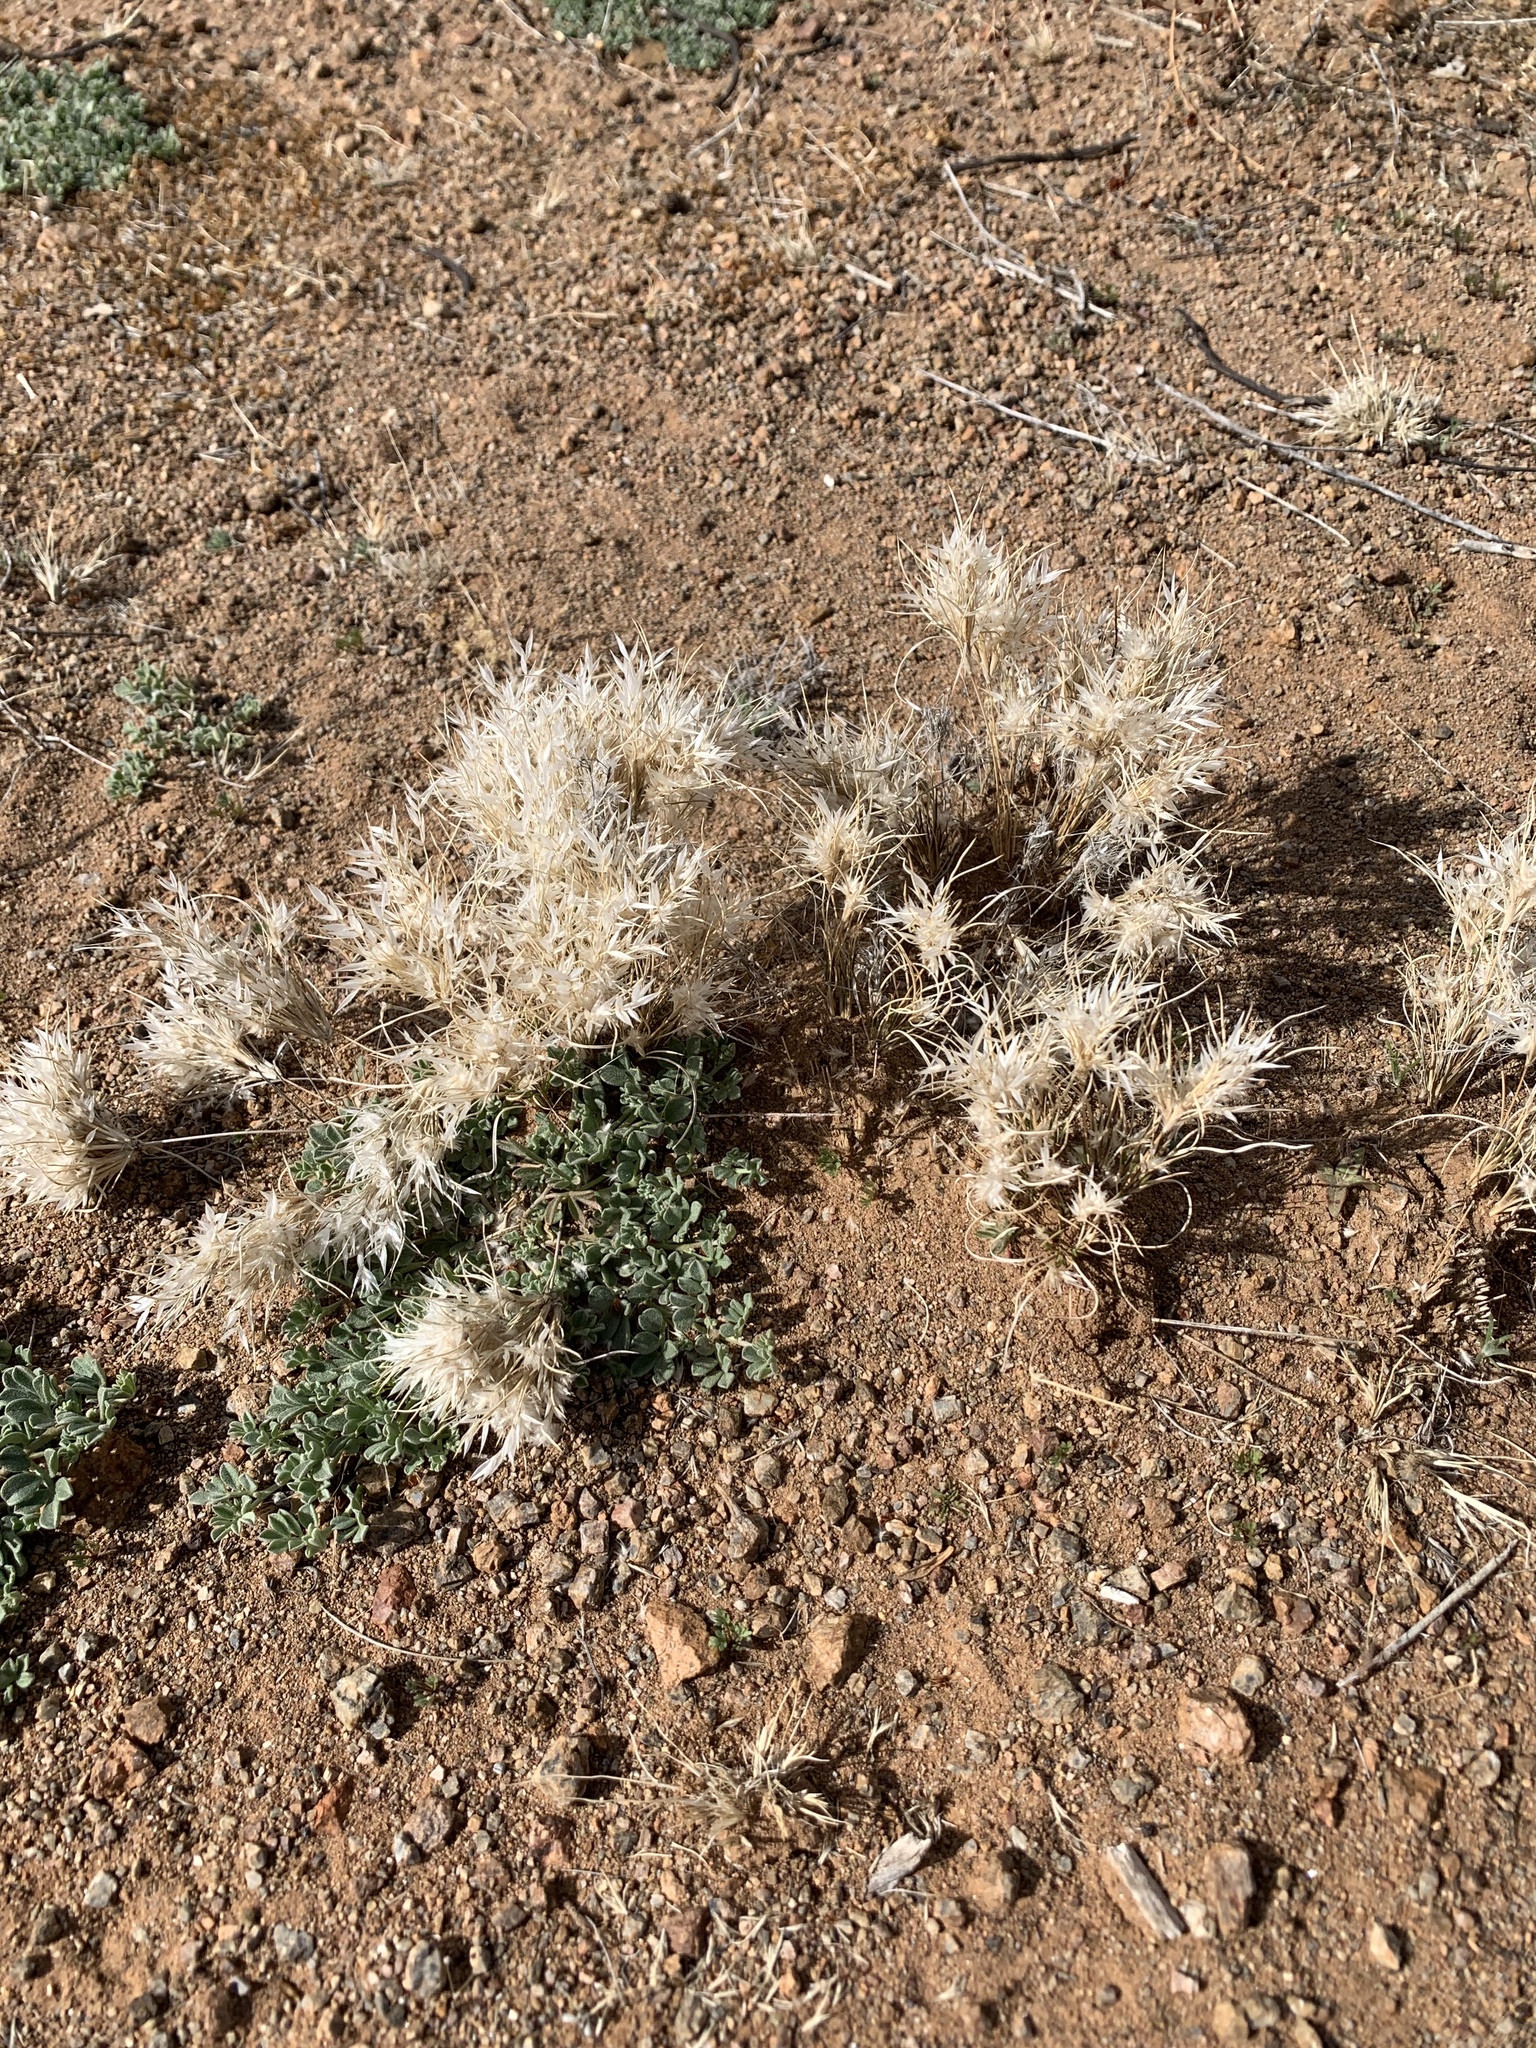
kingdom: Plantae
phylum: Tracheophyta
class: Liliopsida
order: Poales
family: Poaceae
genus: Dasyochloa
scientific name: Dasyochloa pulchella
